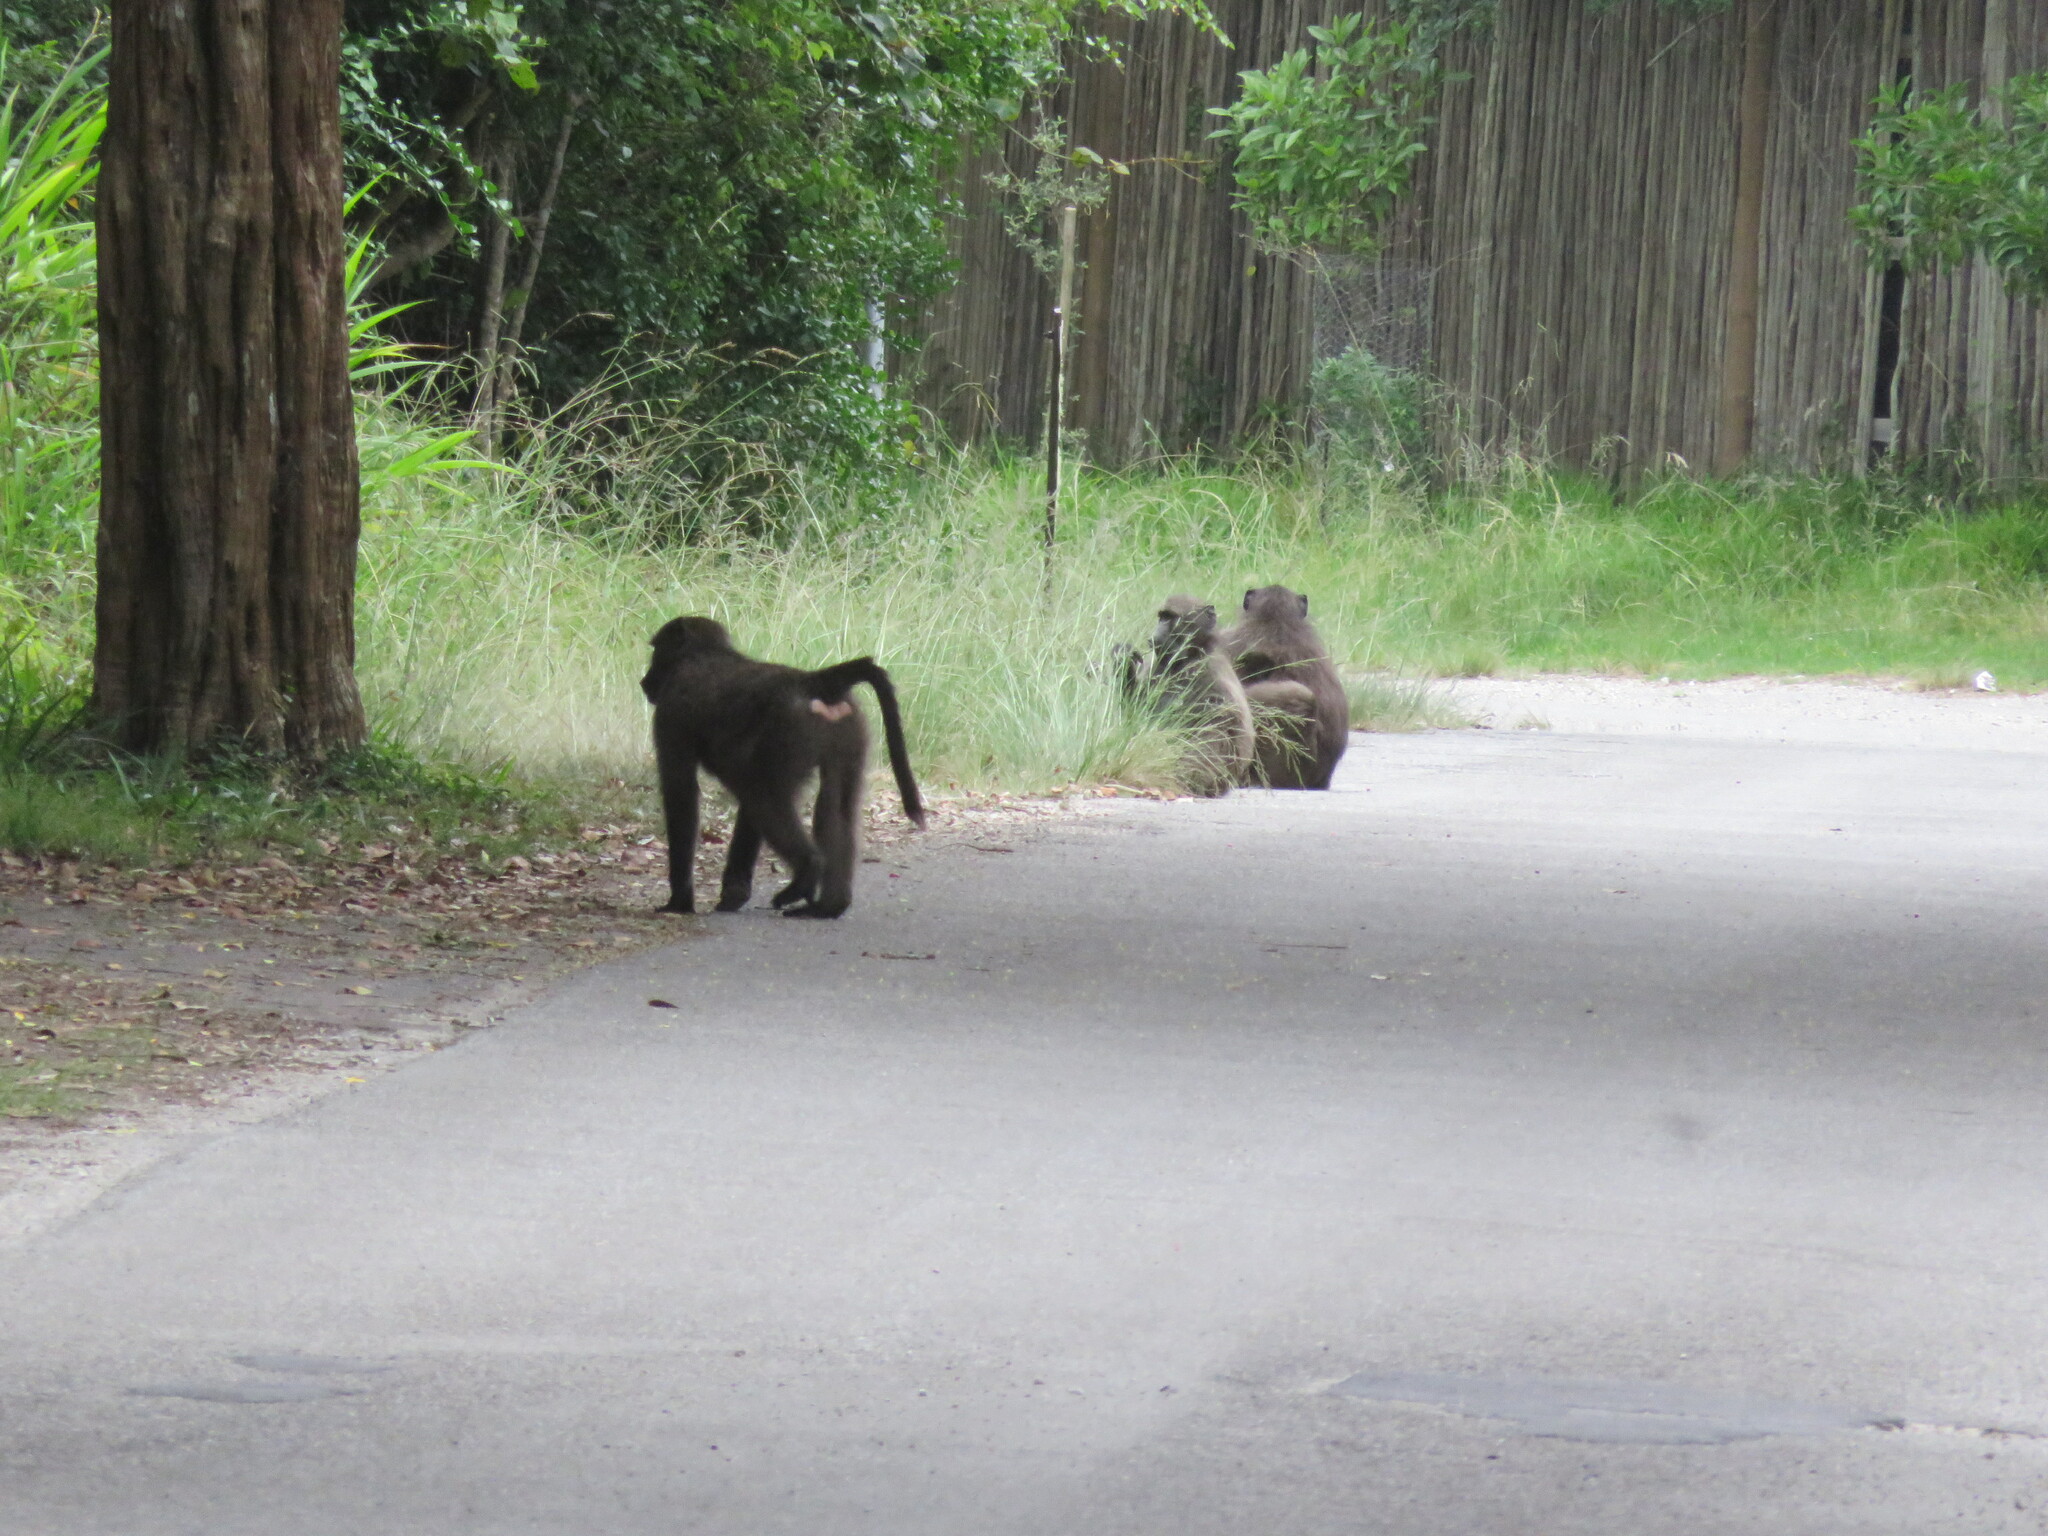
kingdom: Animalia
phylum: Chordata
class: Mammalia
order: Primates
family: Cercopithecidae
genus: Papio
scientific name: Papio ursinus
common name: Chacma baboon
